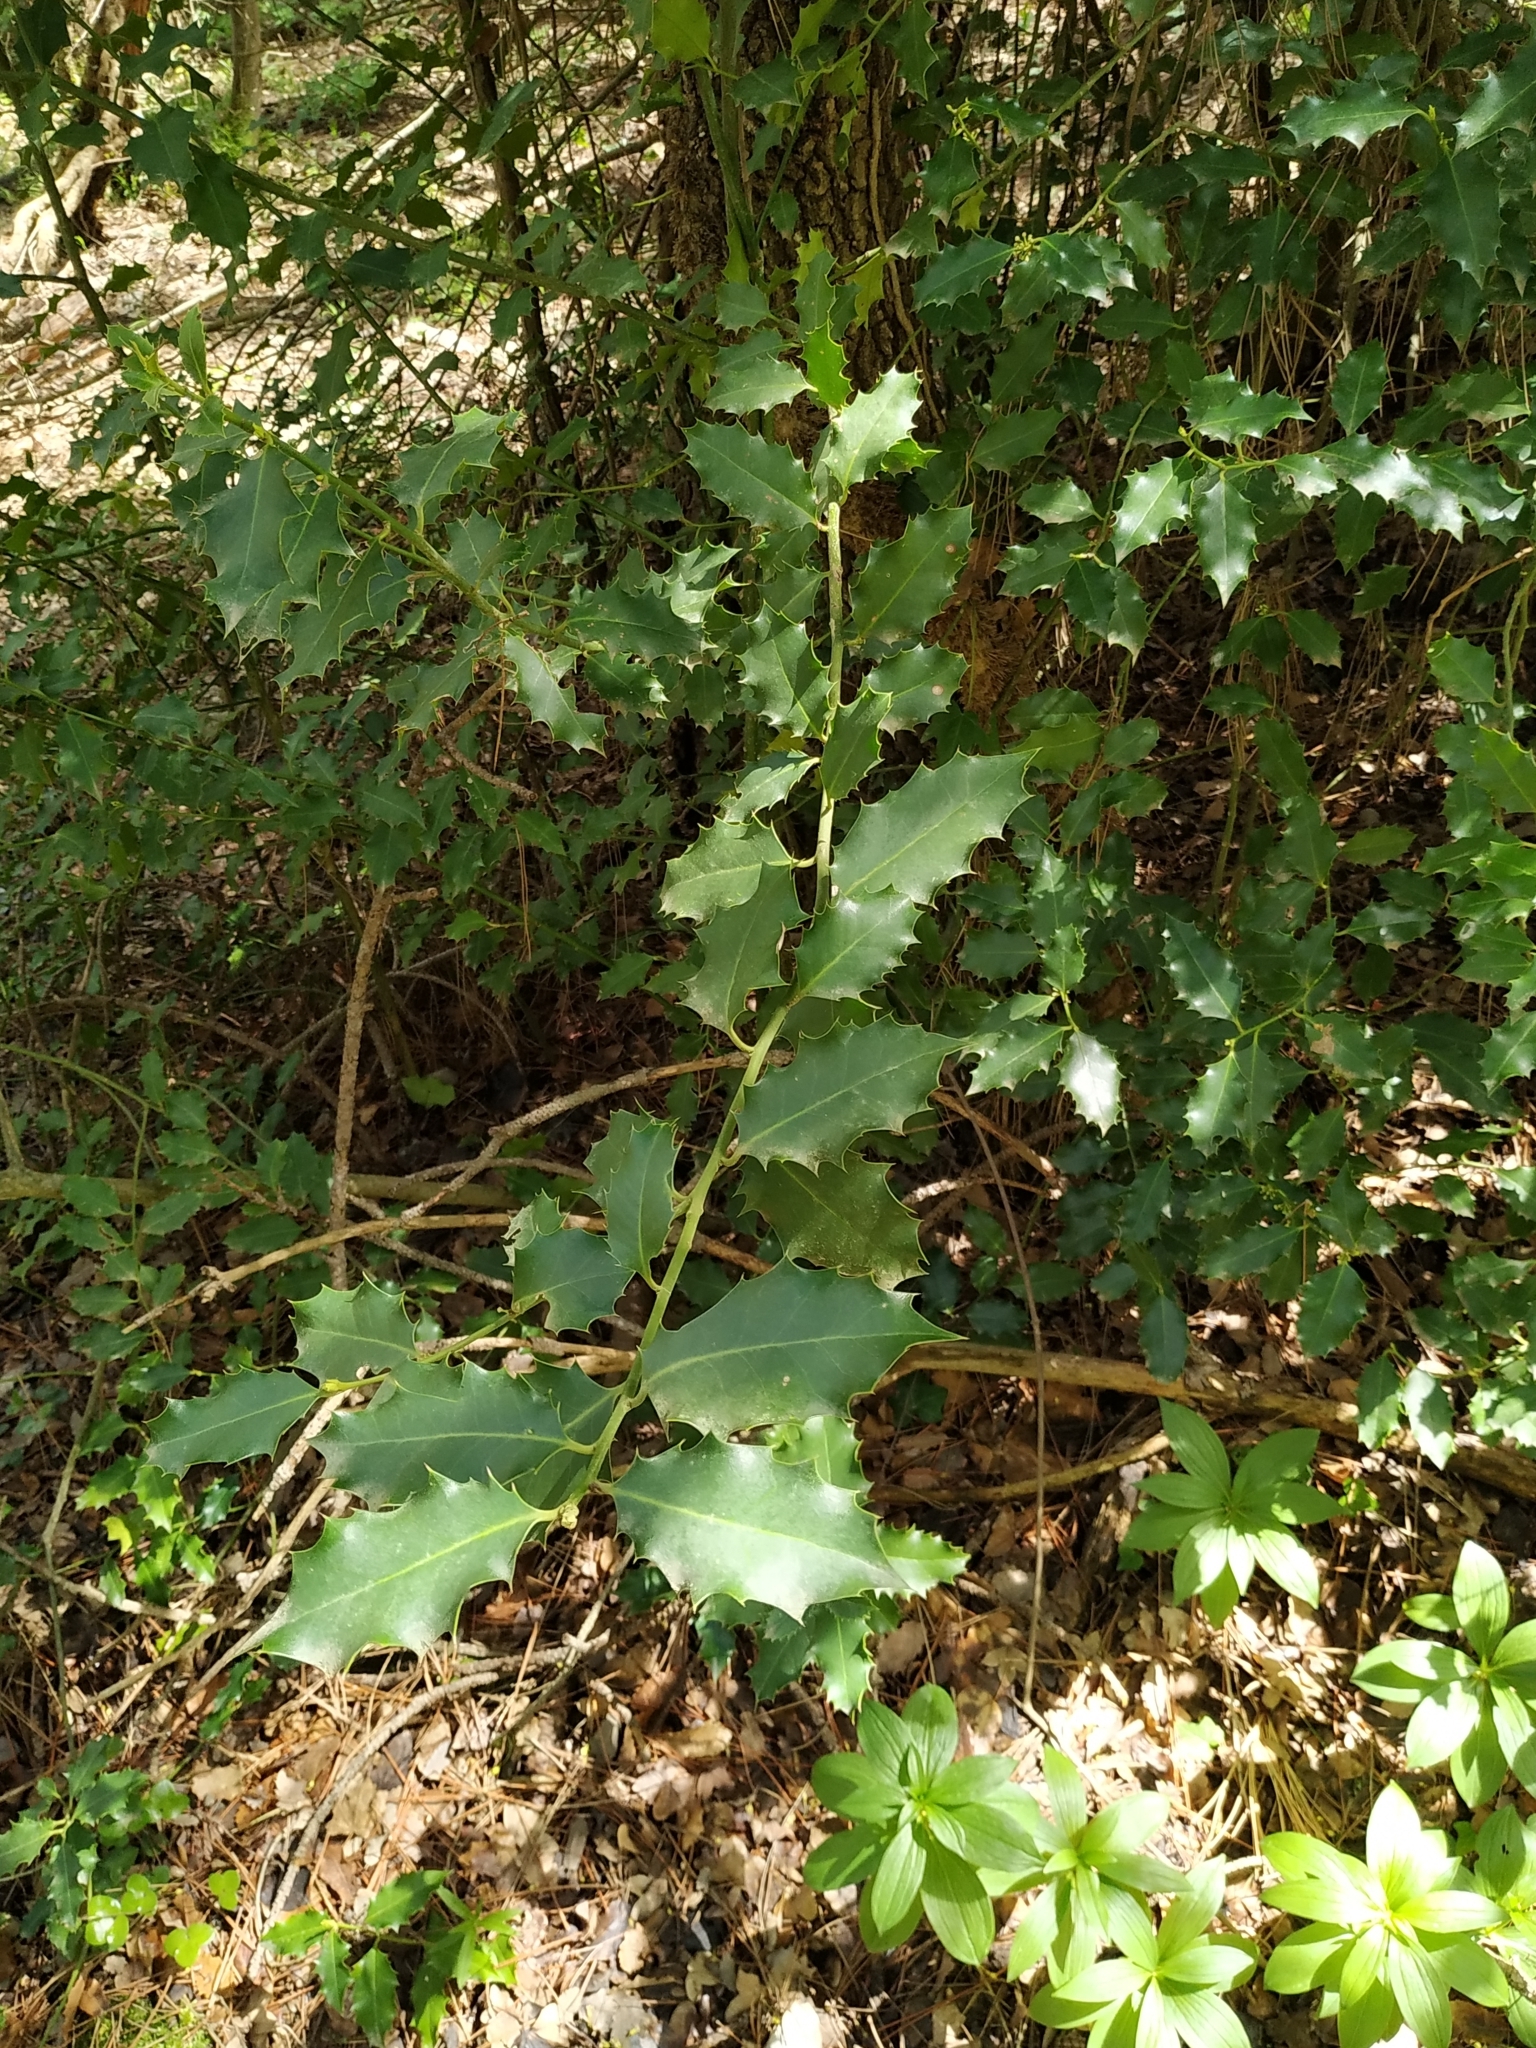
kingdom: Plantae
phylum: Tracheophyta
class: Magnoliopsida
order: Aquifoliales
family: Aquifoliaceae
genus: Ilex
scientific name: Ilex aquifolium
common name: English holly
